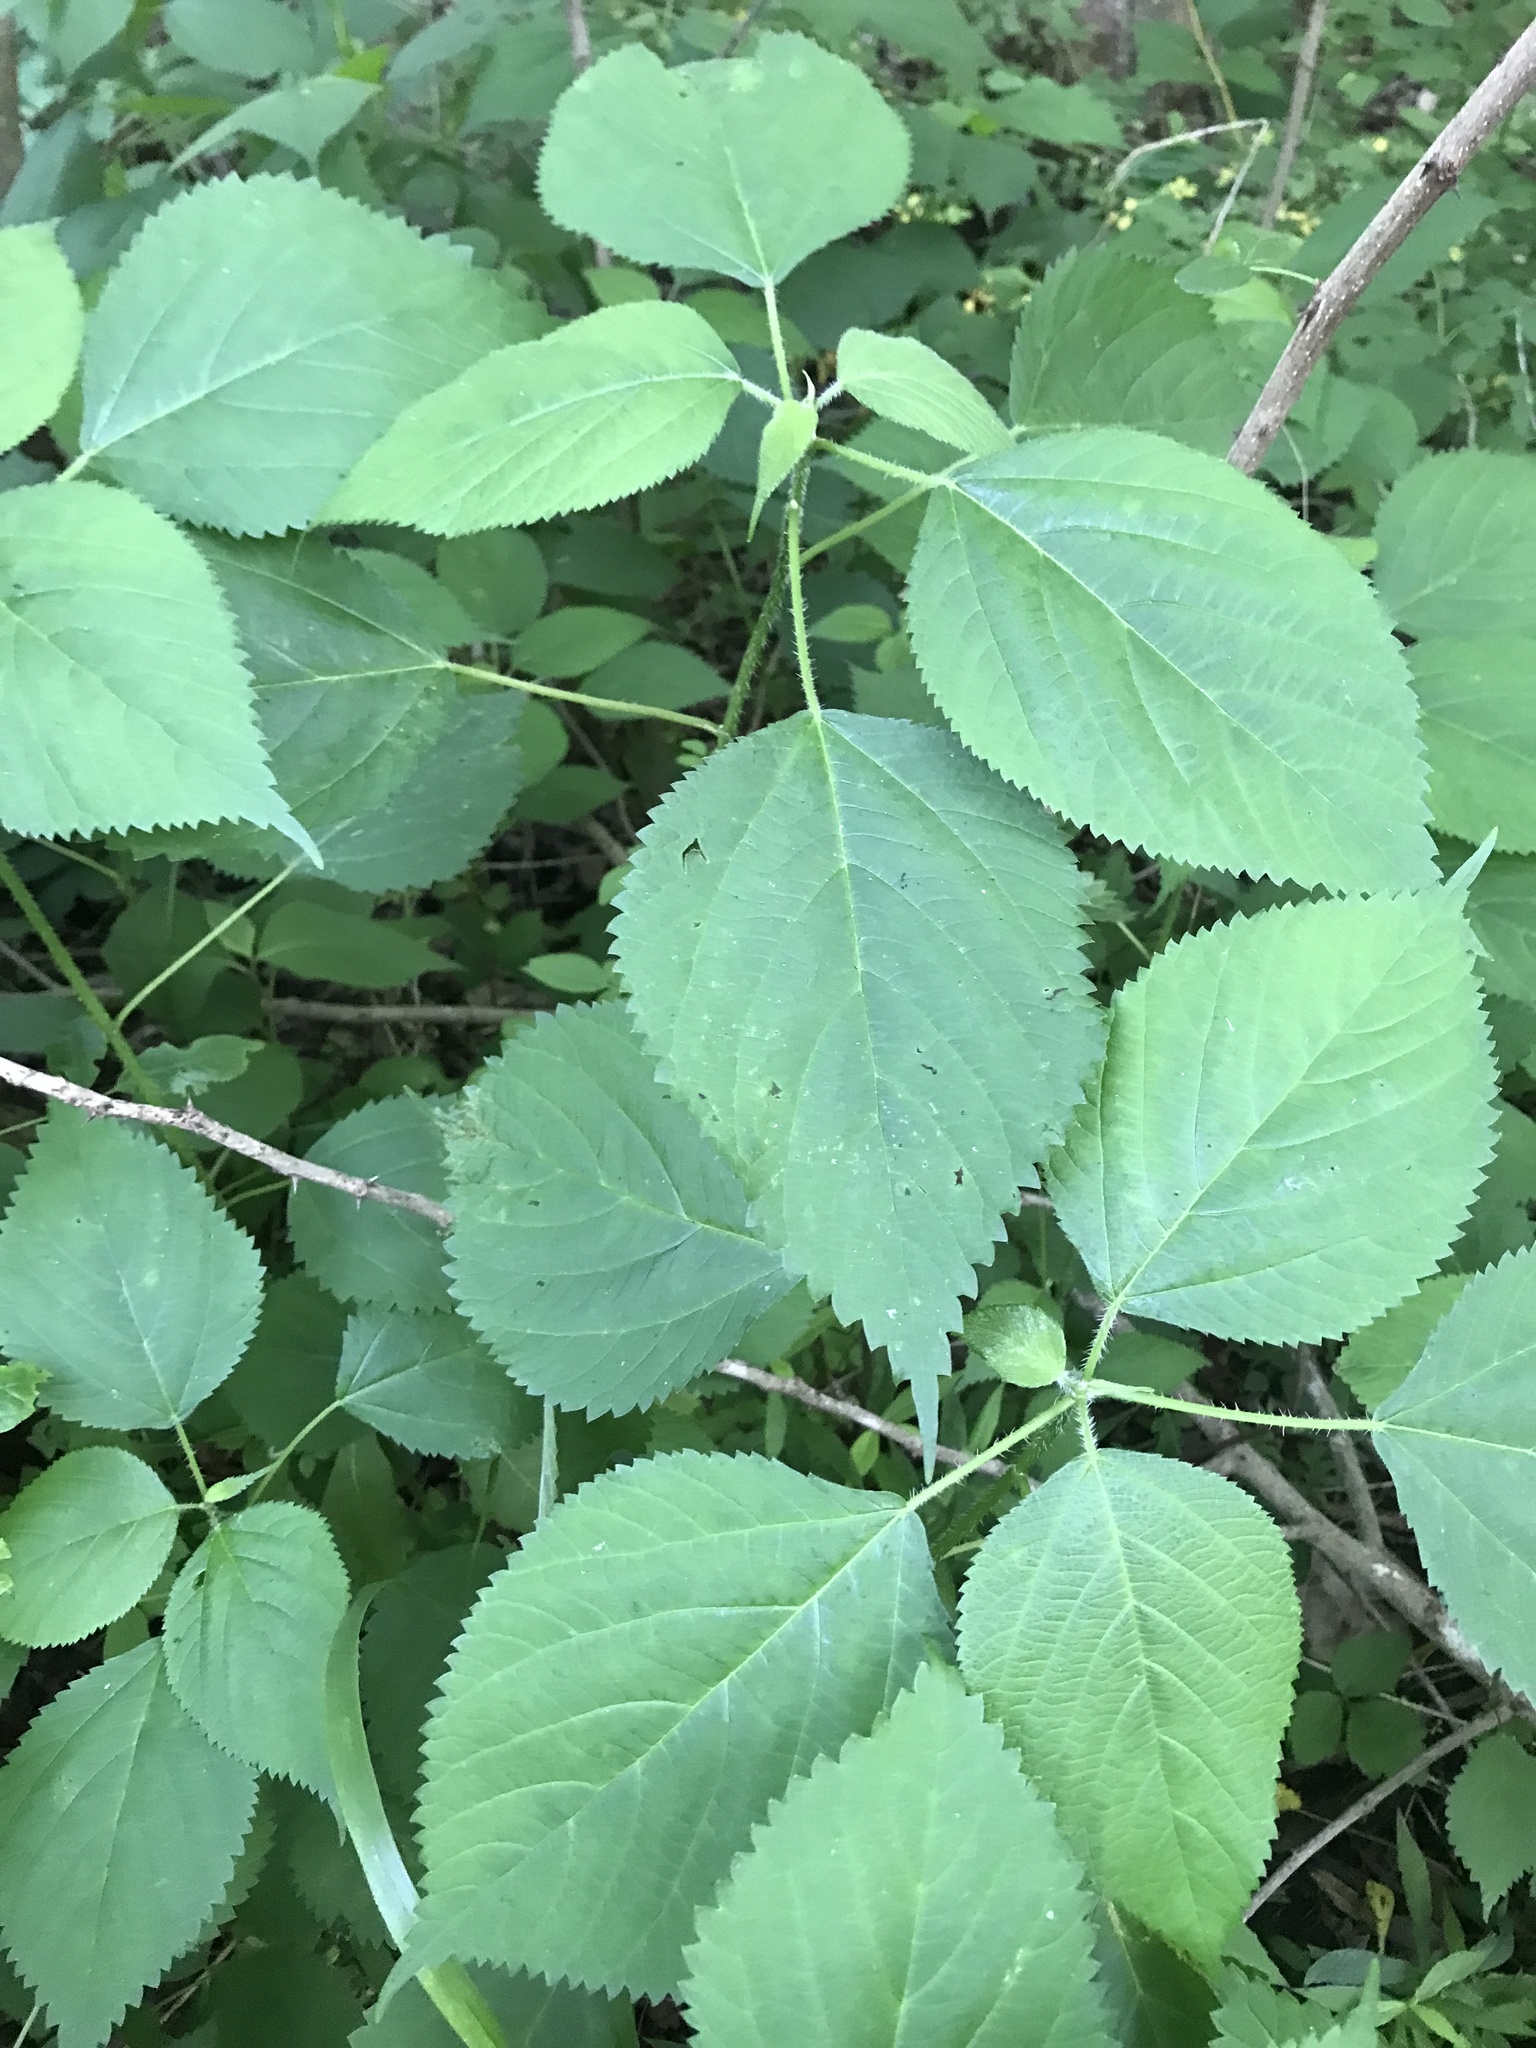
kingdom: Plantae
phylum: Tracheophyta
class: Magnoliopsida
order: Rosales
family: Urticaceae
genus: Laportea
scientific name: Laportea canadensis
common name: Canada nettle
